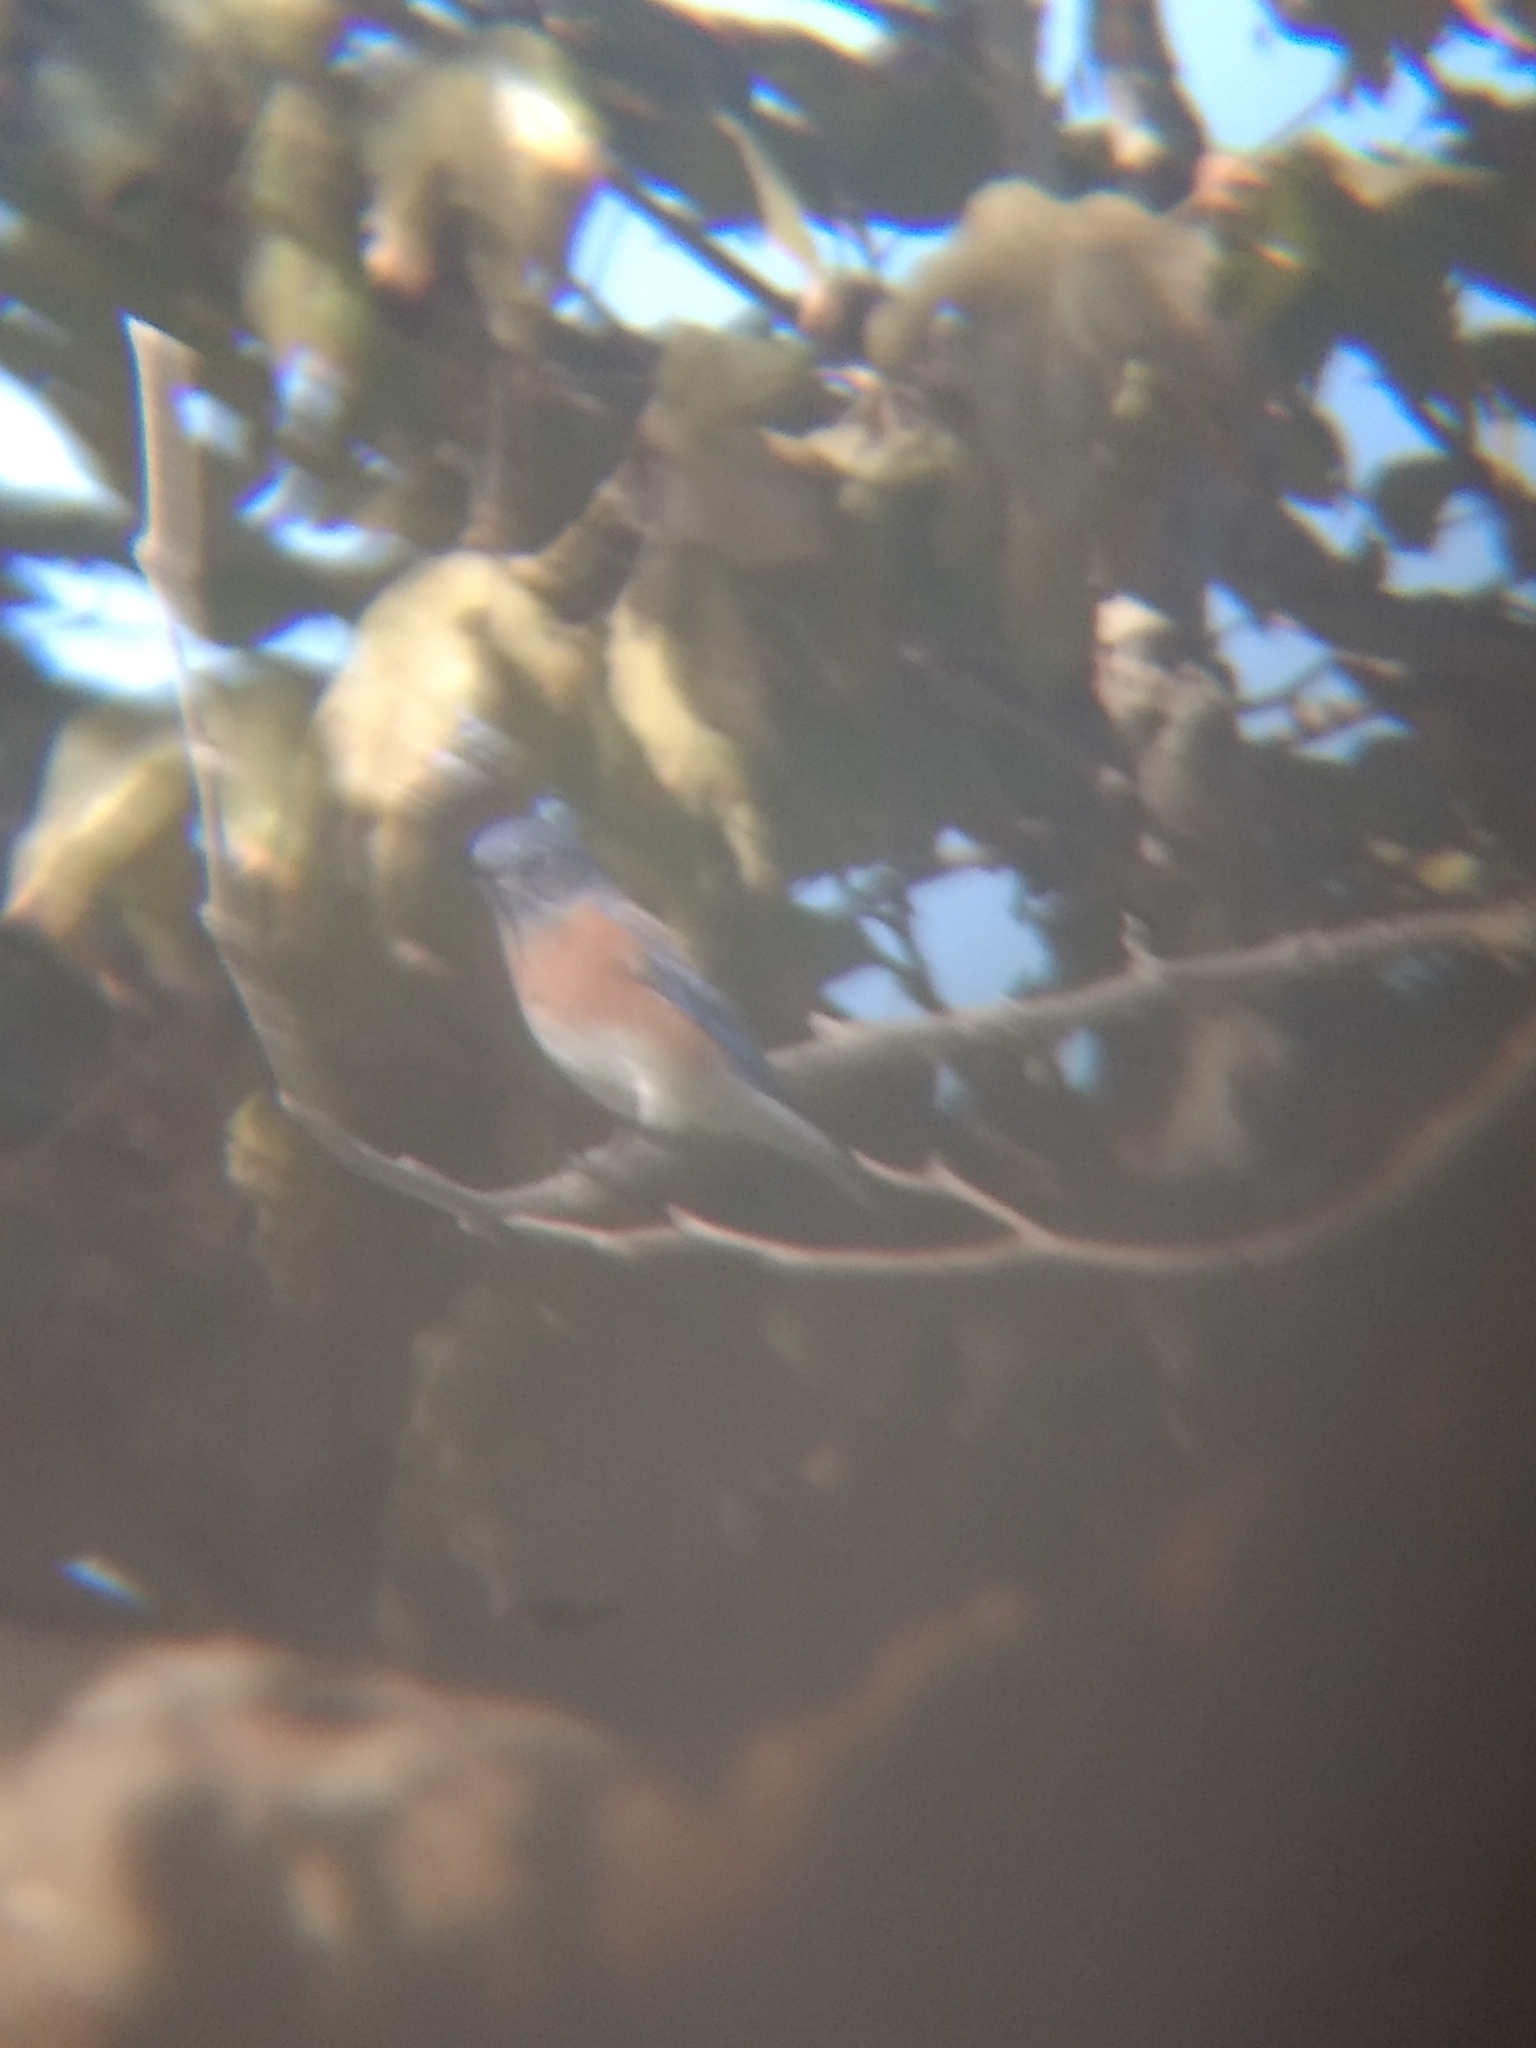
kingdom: Animalia
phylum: Chordata
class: Aves
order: Passeriformes
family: Turdidae
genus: Sialia
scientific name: Sialia mexicana
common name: Western bluebird
